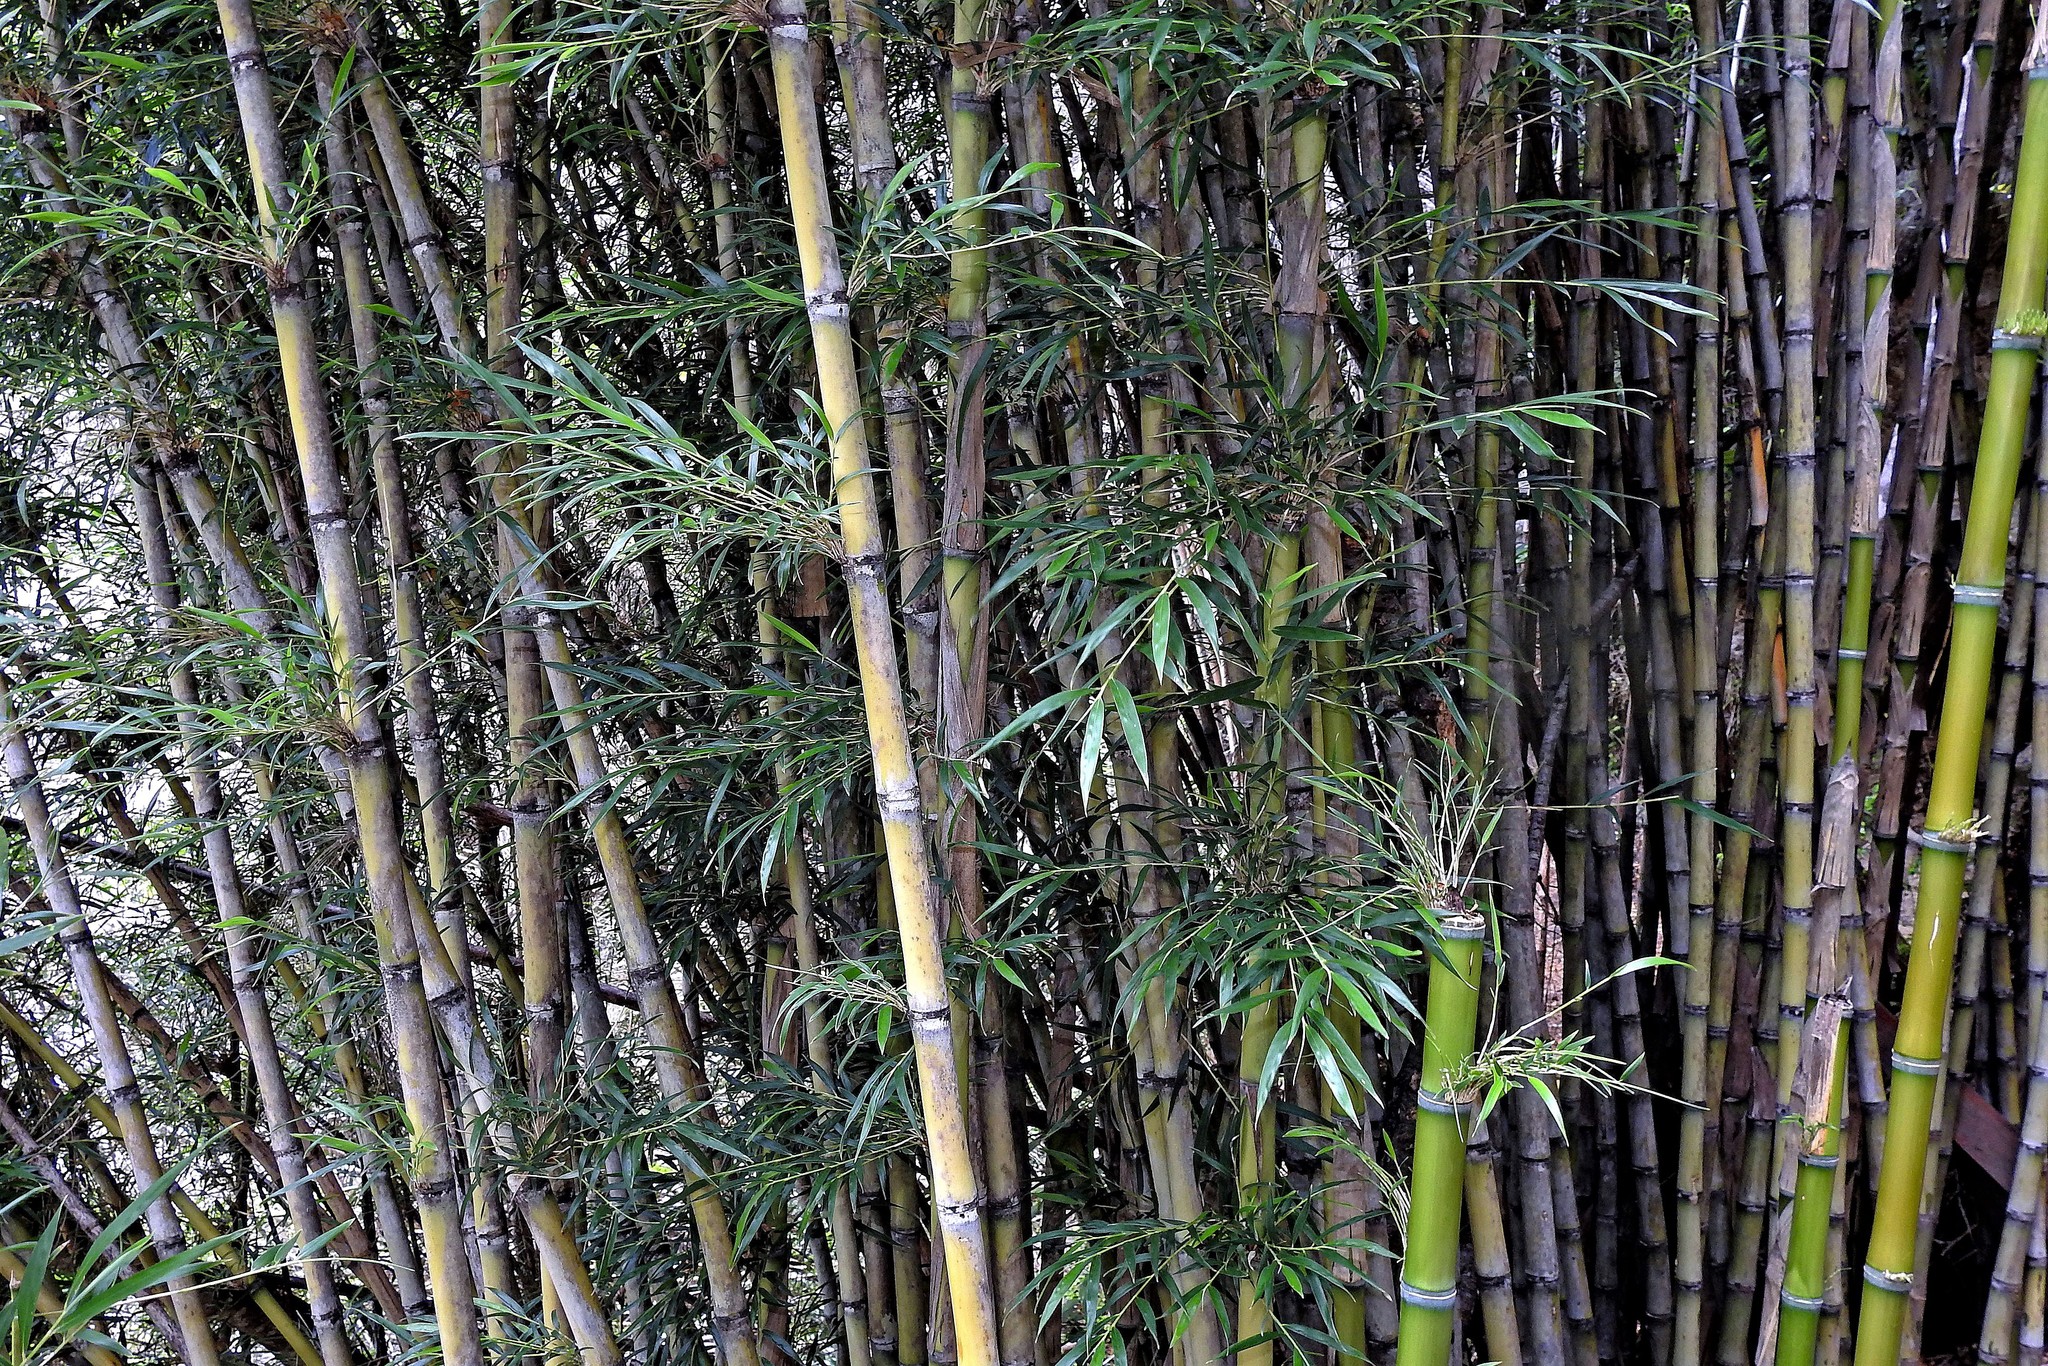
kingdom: Plantae
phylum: Tracheophyta
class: Liliopsida
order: Poales
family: Poaceae
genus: Chusquea
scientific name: Chusquea culeou
